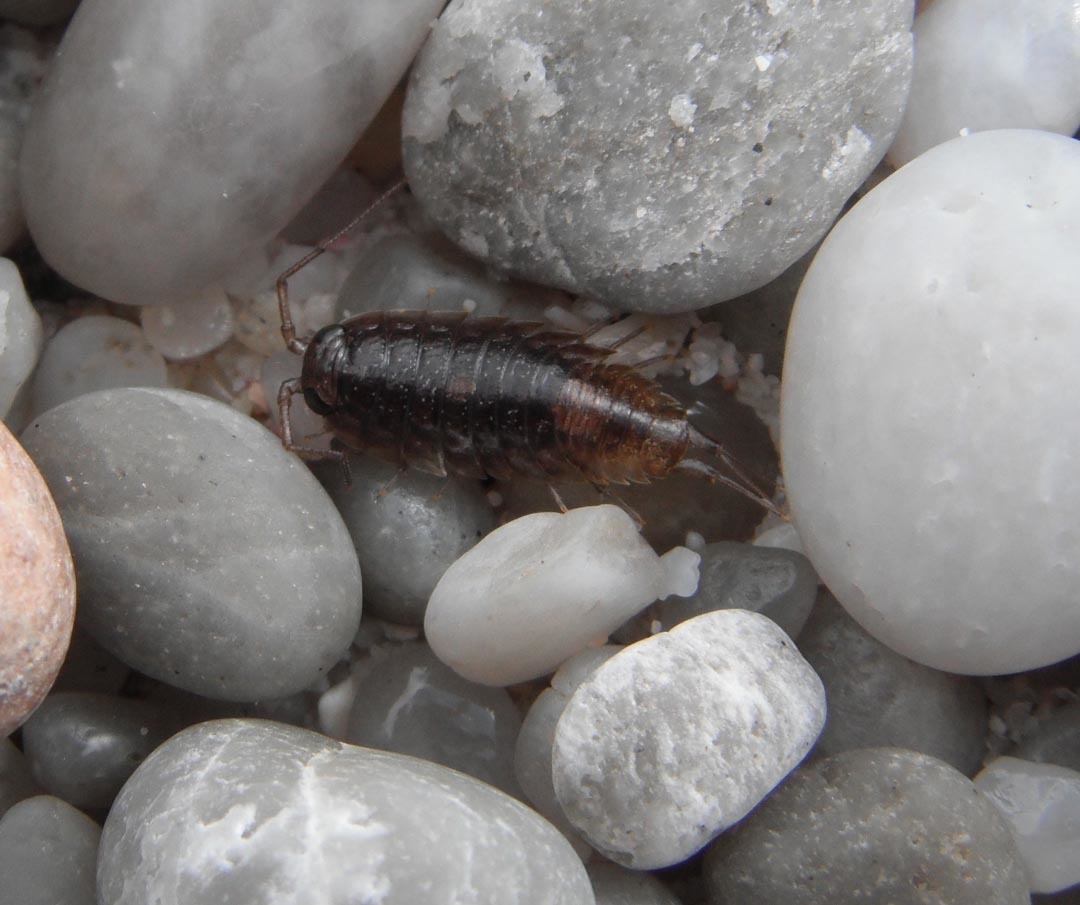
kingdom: Animalia
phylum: Arthropoda
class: Malacostraca
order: Isopoda
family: Ligiidae
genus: Ligia
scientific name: Ligia dilatata
